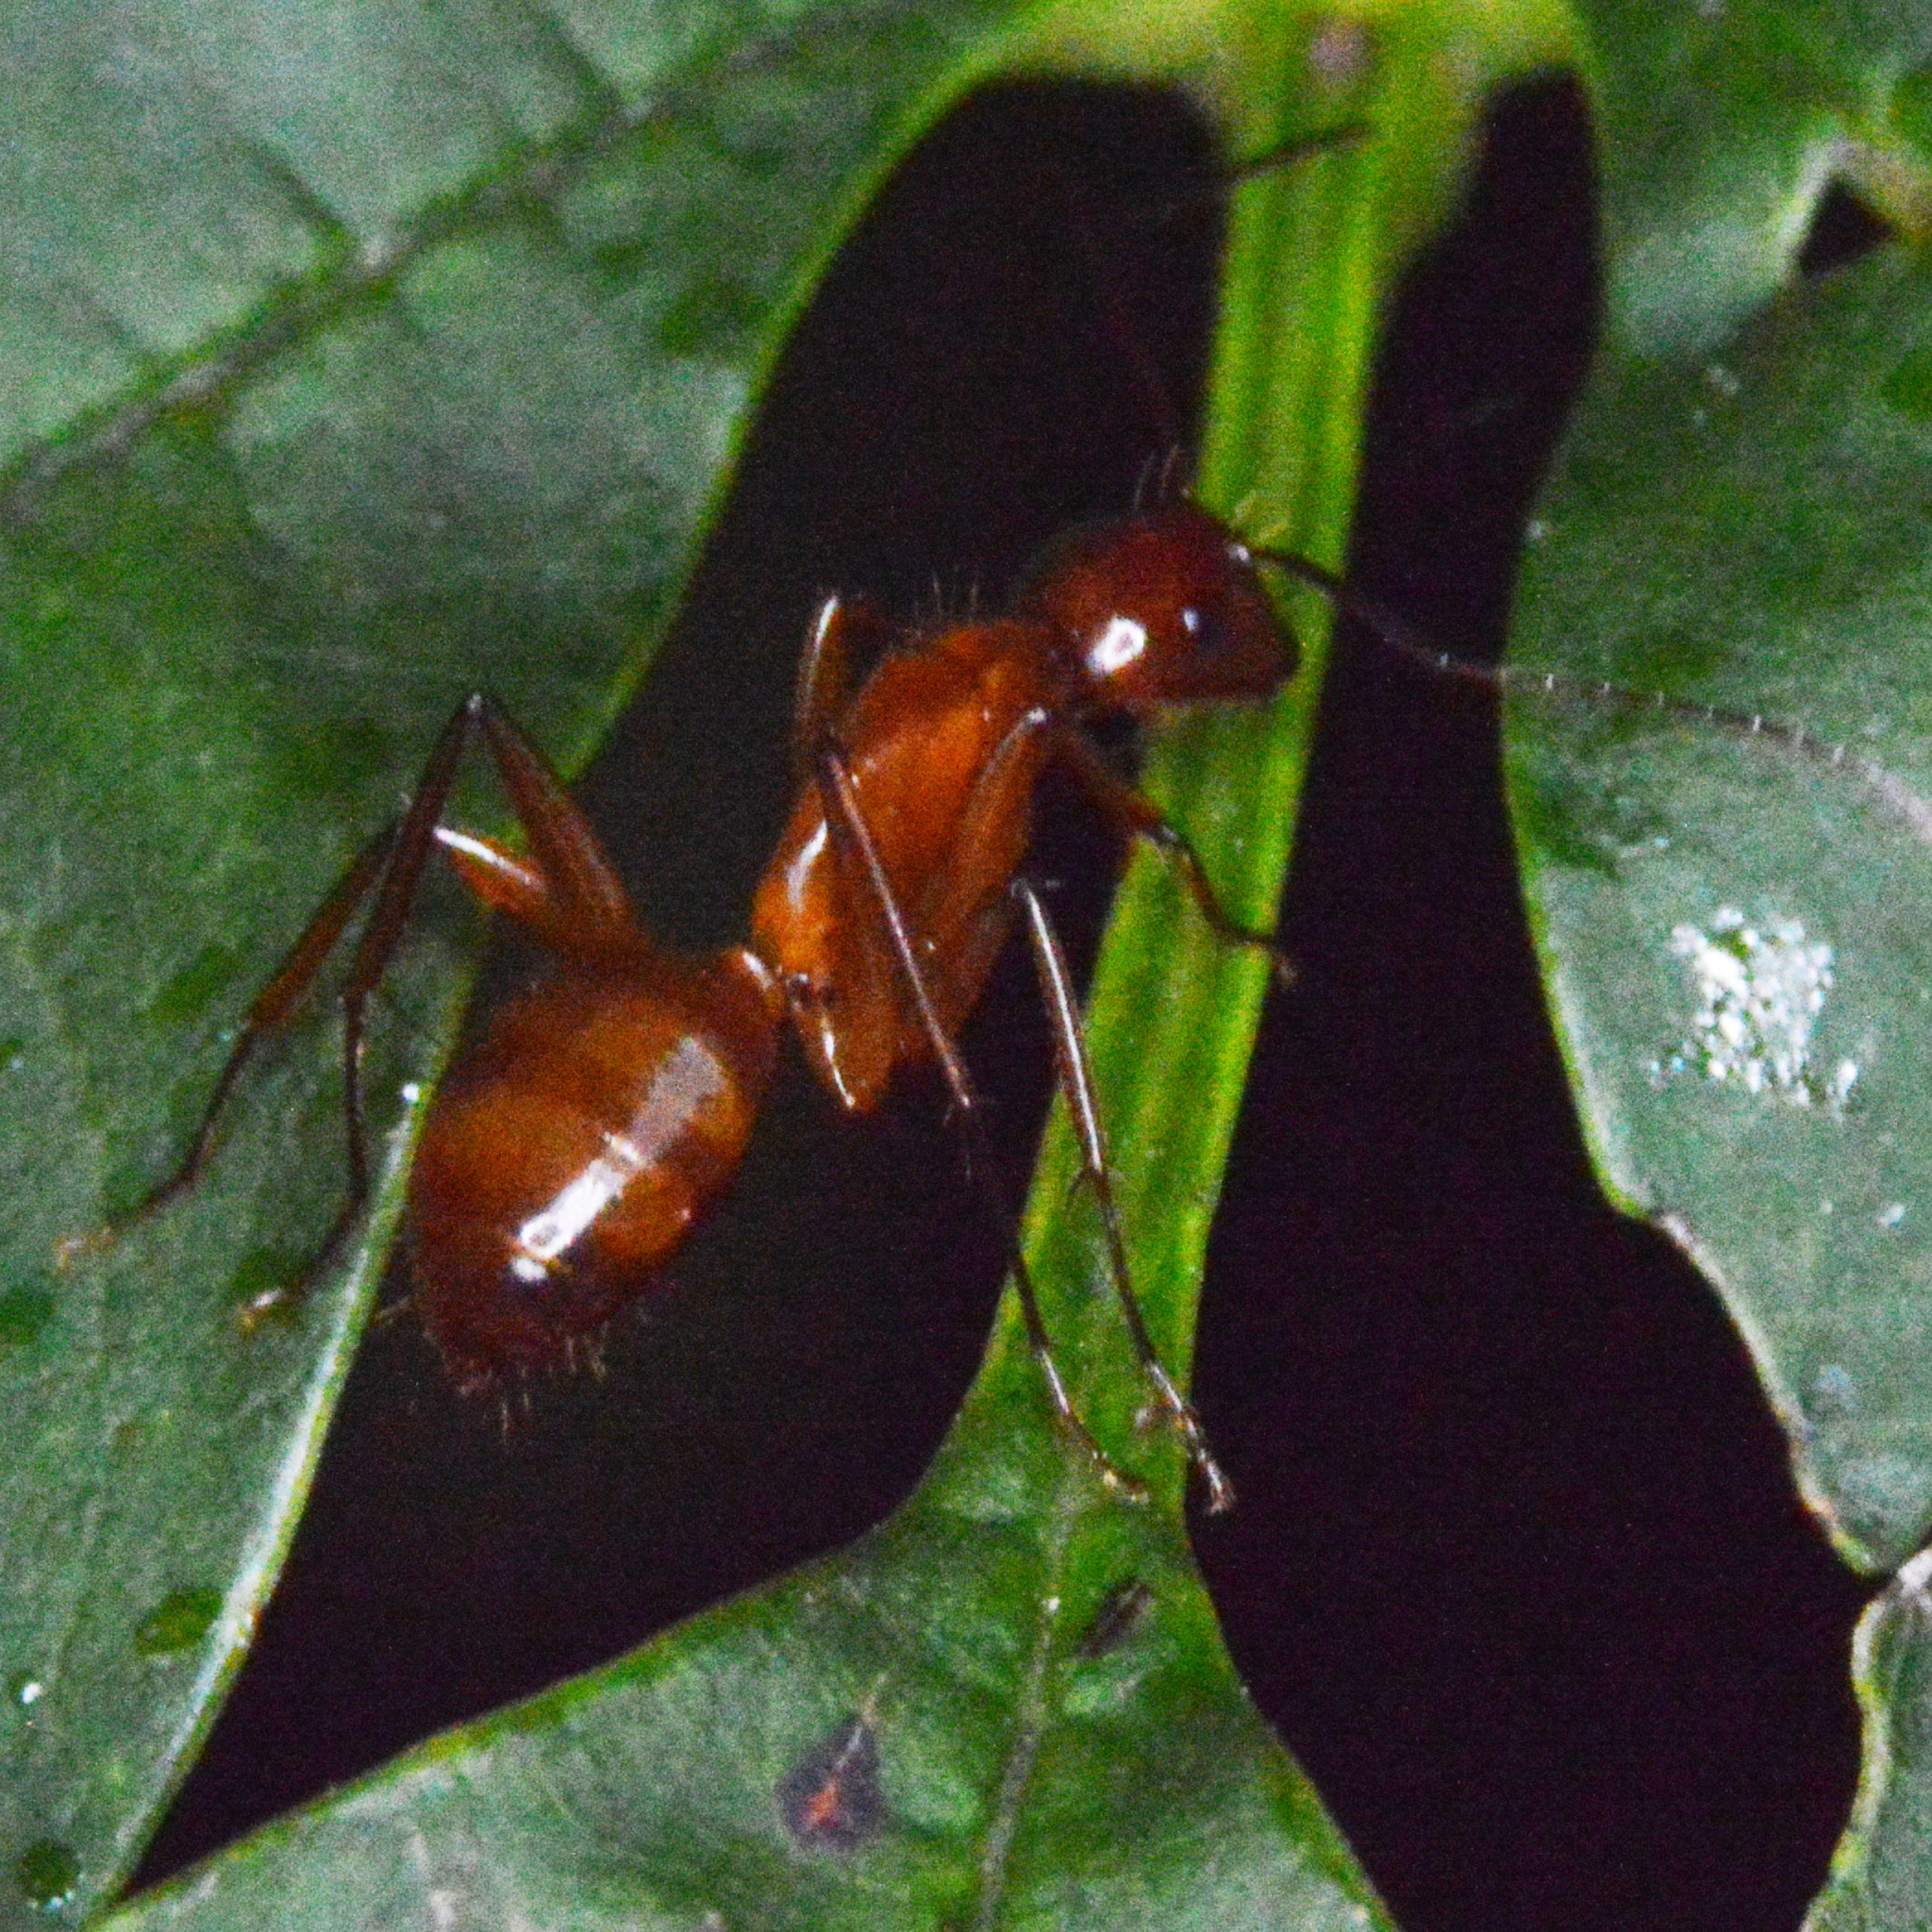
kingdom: Animalia
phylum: Arthropoda
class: Insecta
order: Hymenoptera
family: Formicidae
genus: Camponotus
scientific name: Camponotus castaneus
